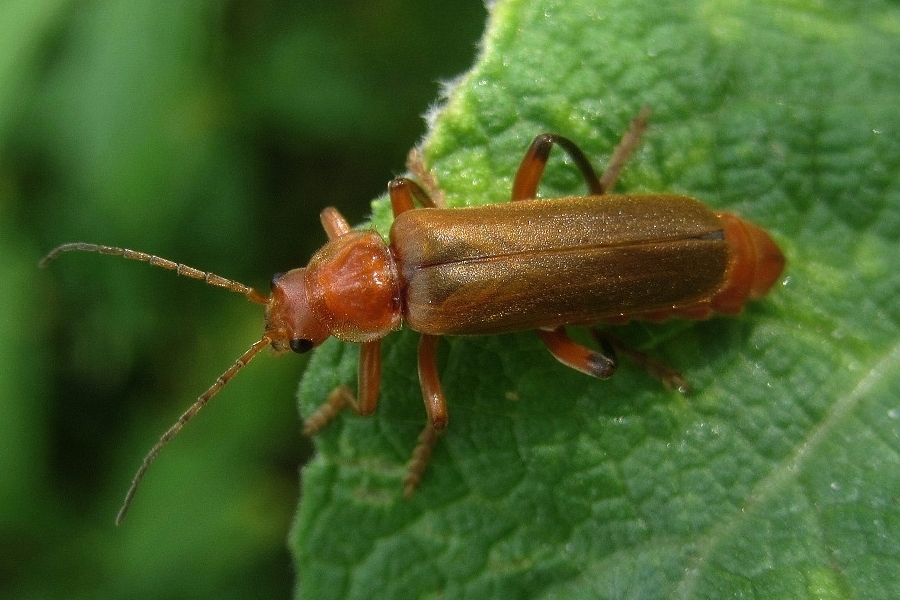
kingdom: Animalia
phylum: Arthropoda
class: Insecta
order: Coleoptera
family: Cantharidae
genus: Cantharis
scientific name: Cantharis livida
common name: Livid soldier beetle
